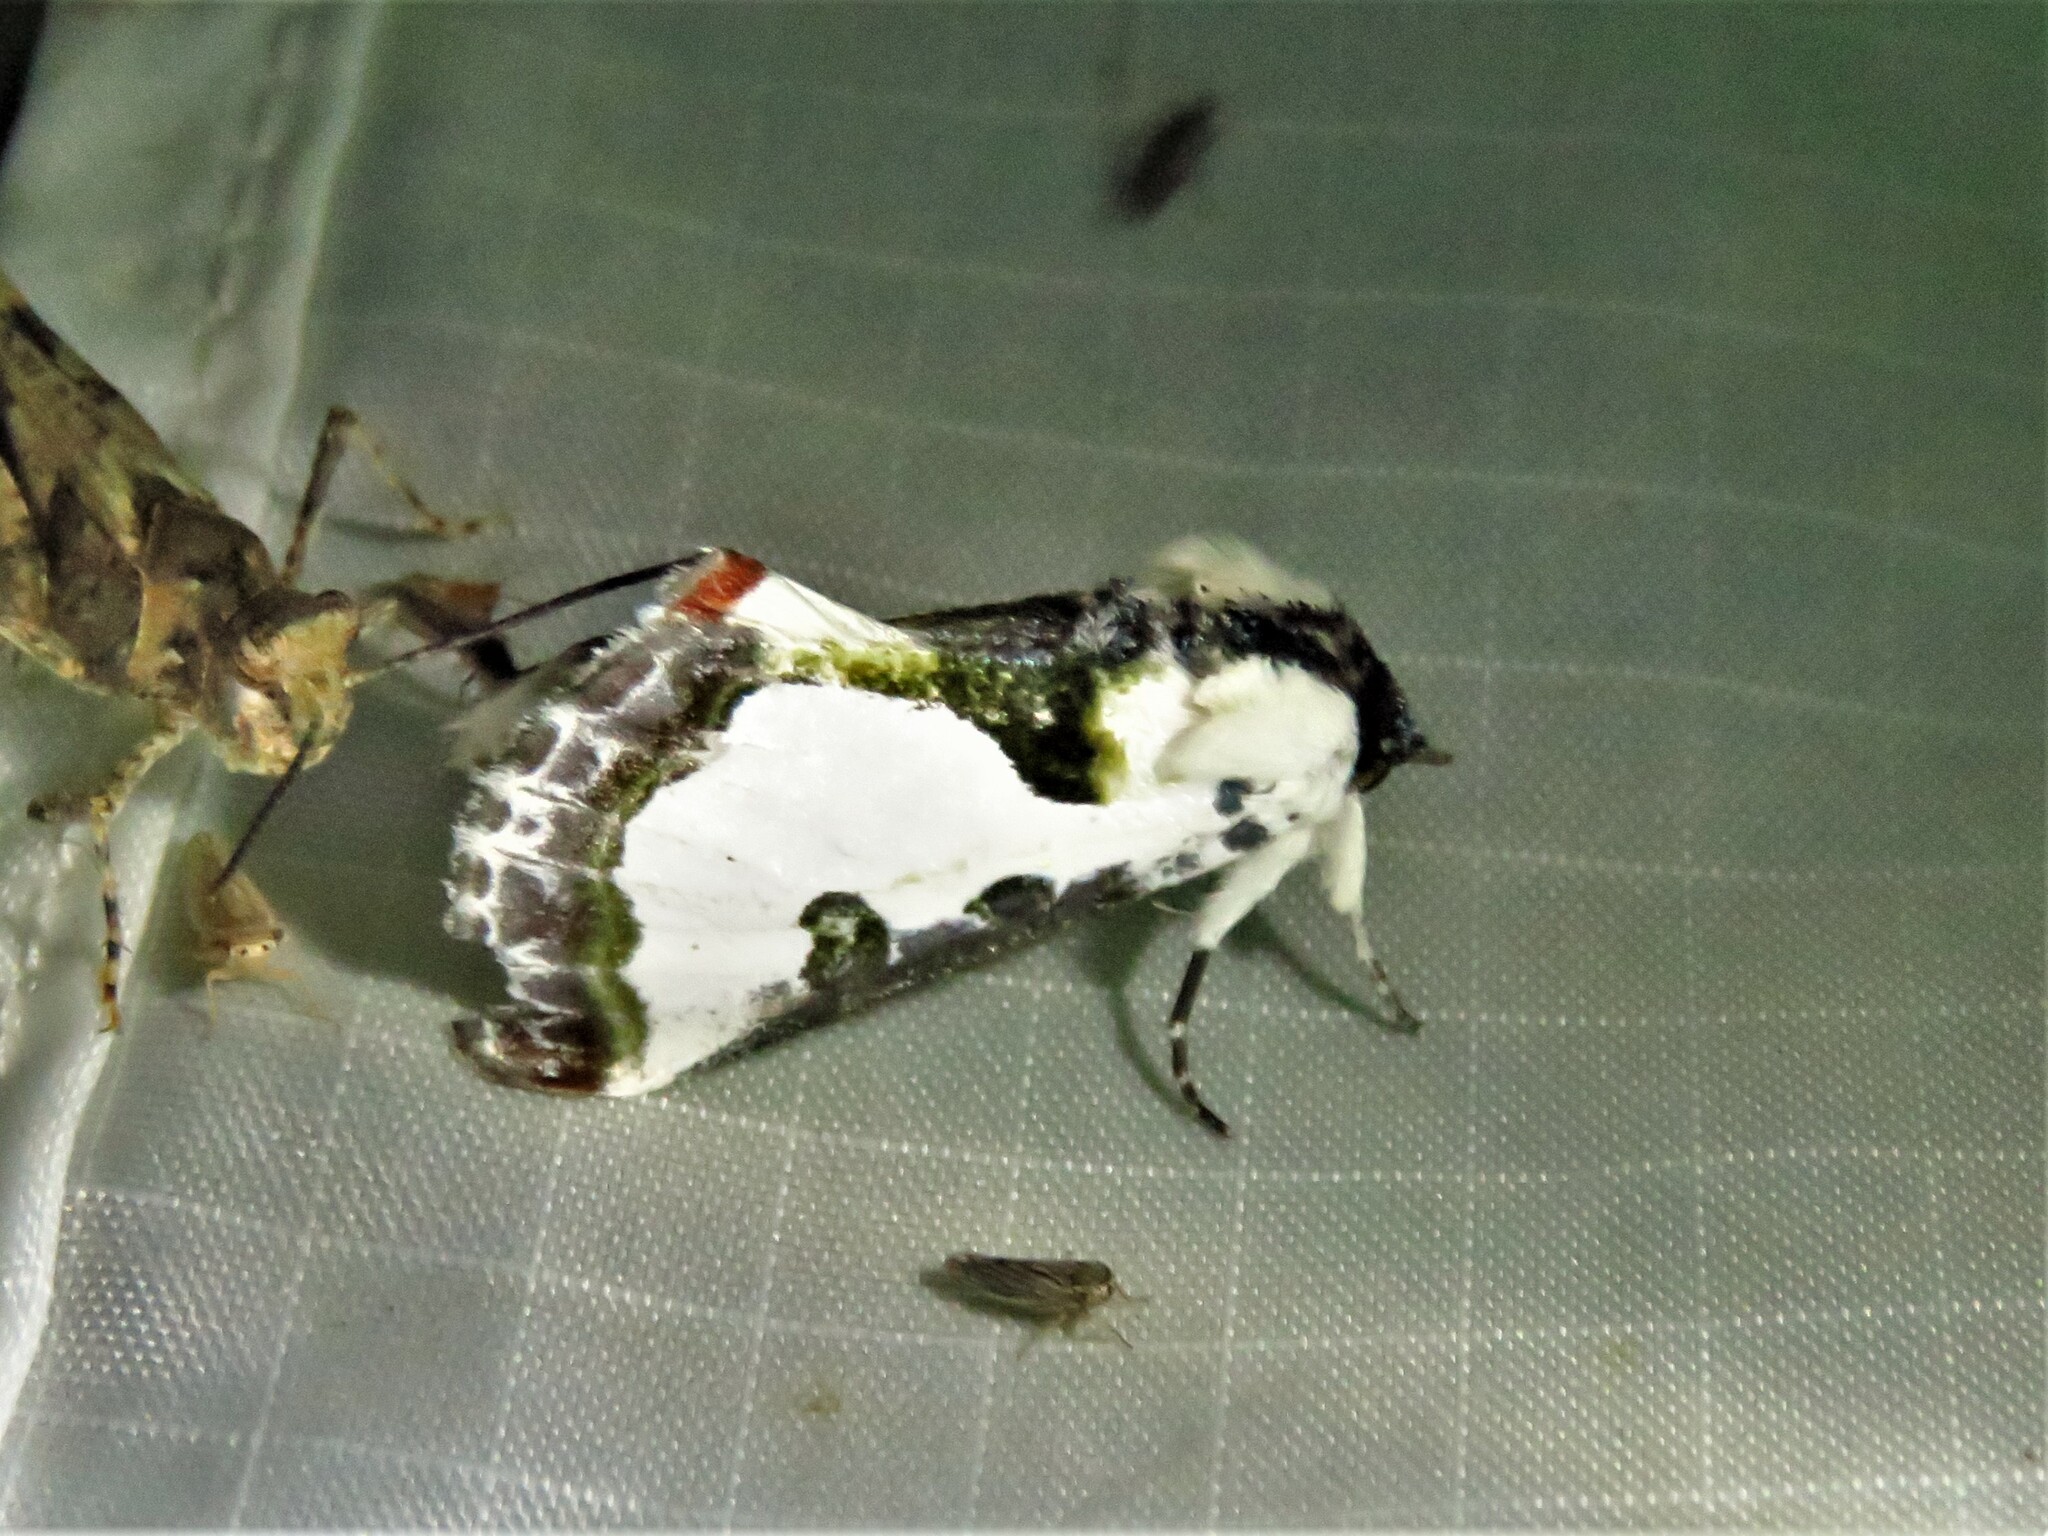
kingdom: Animalia
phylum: Arthropoda
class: Insecta
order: Lepidoptera
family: Noctuidae
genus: Xerociris
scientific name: Xerociris wilsonii
